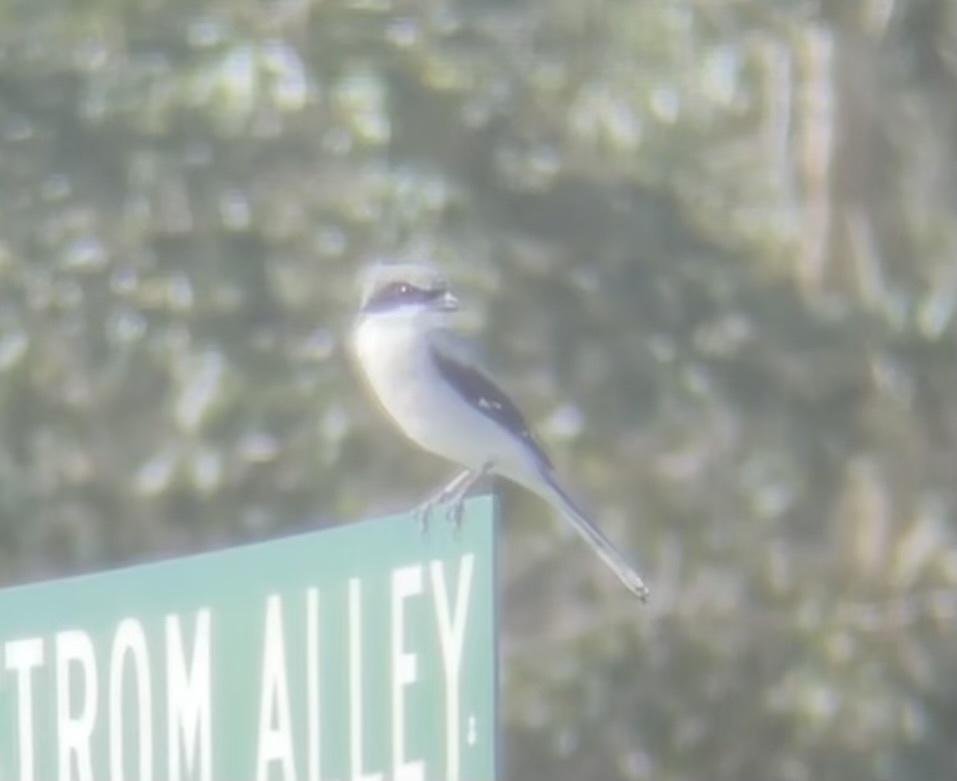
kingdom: Animalia
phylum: Chordata
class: Aves
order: Passeriformes
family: Laniidae
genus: Lanius
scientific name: Lanius ludovicianus
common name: Loggerhead shrike
